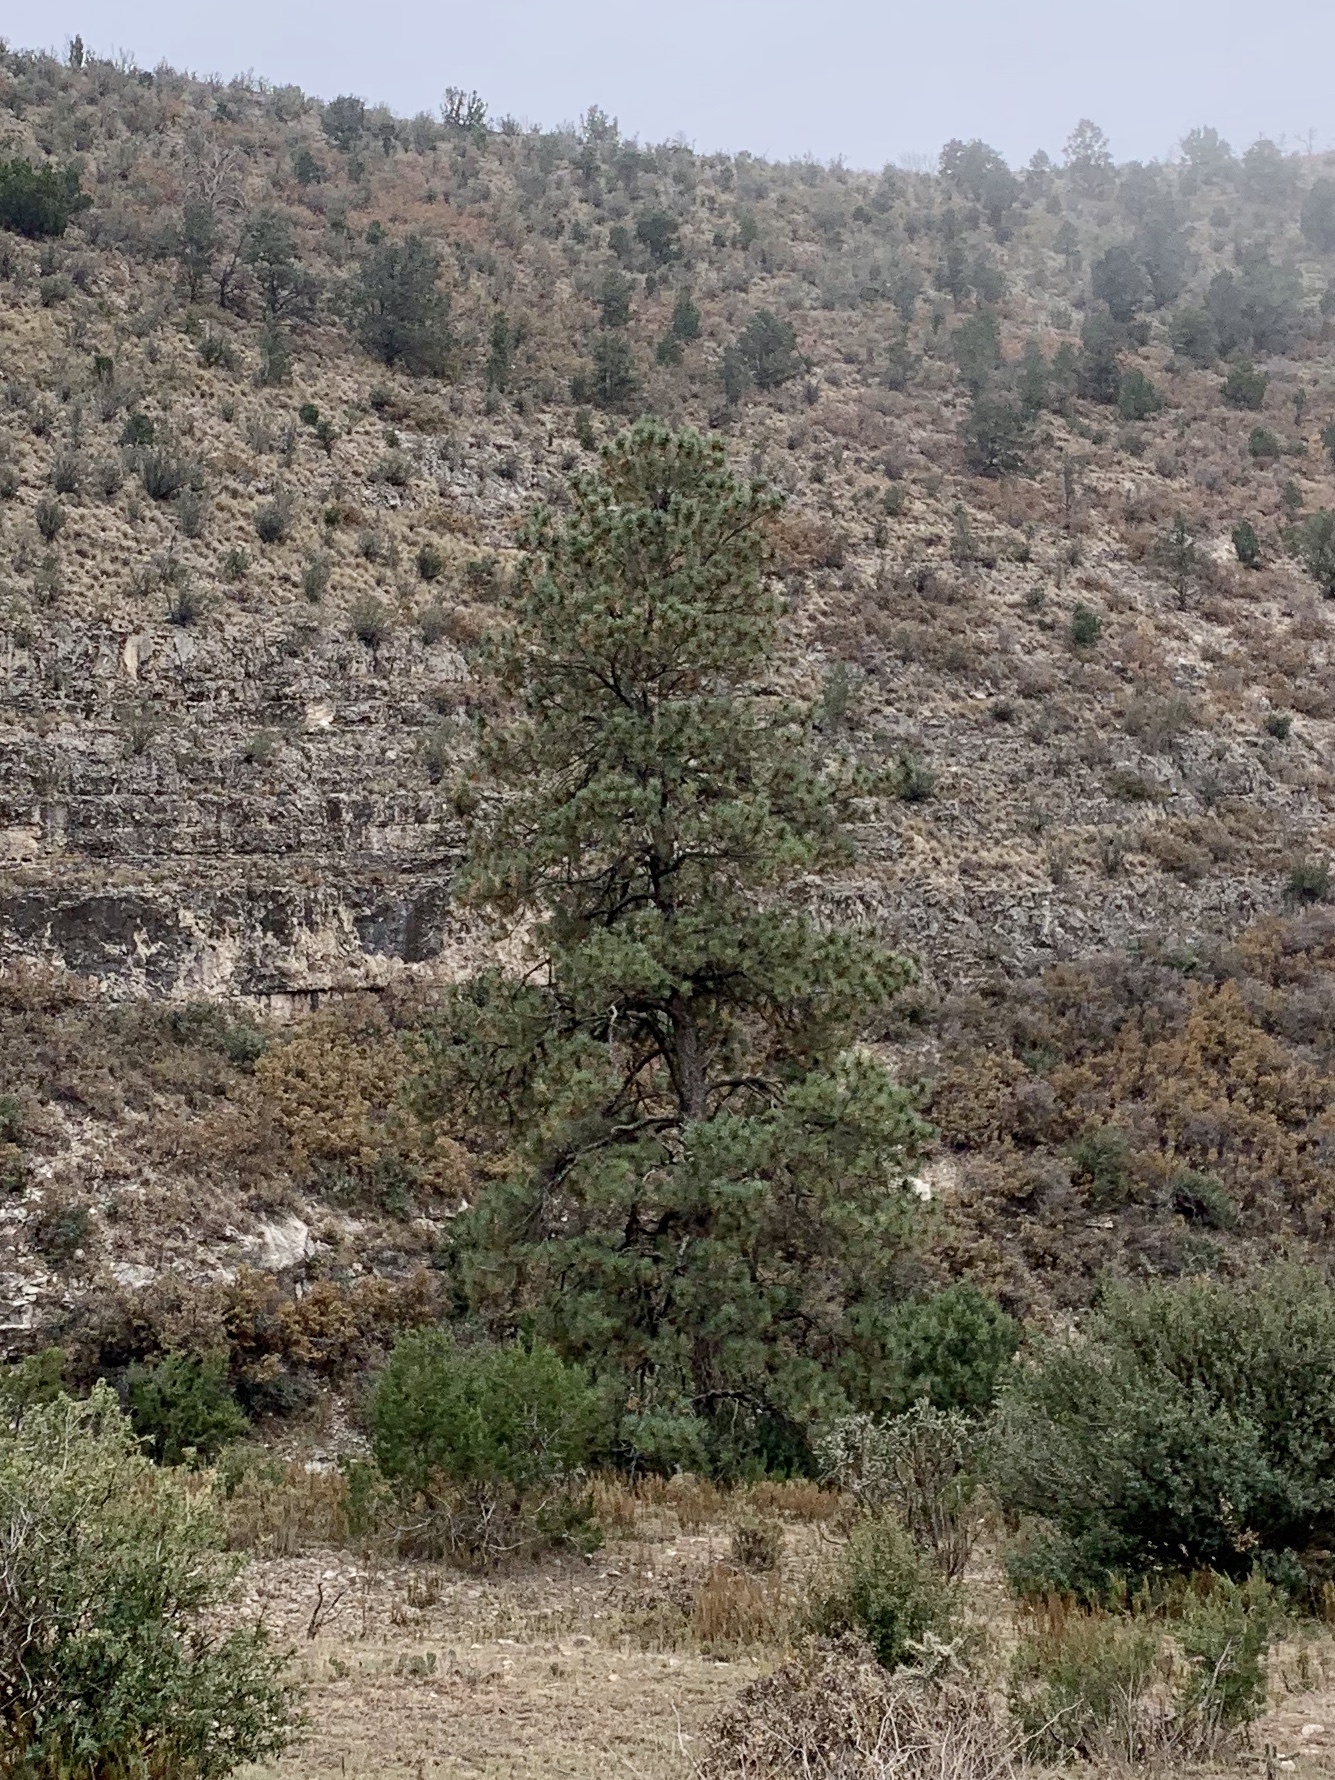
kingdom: Plantae
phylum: Tracheophyta
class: Pinopsida
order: Pinales
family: Pinaceae
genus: Pinus
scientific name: Pinus ponderosa
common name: Western yellow-pine
